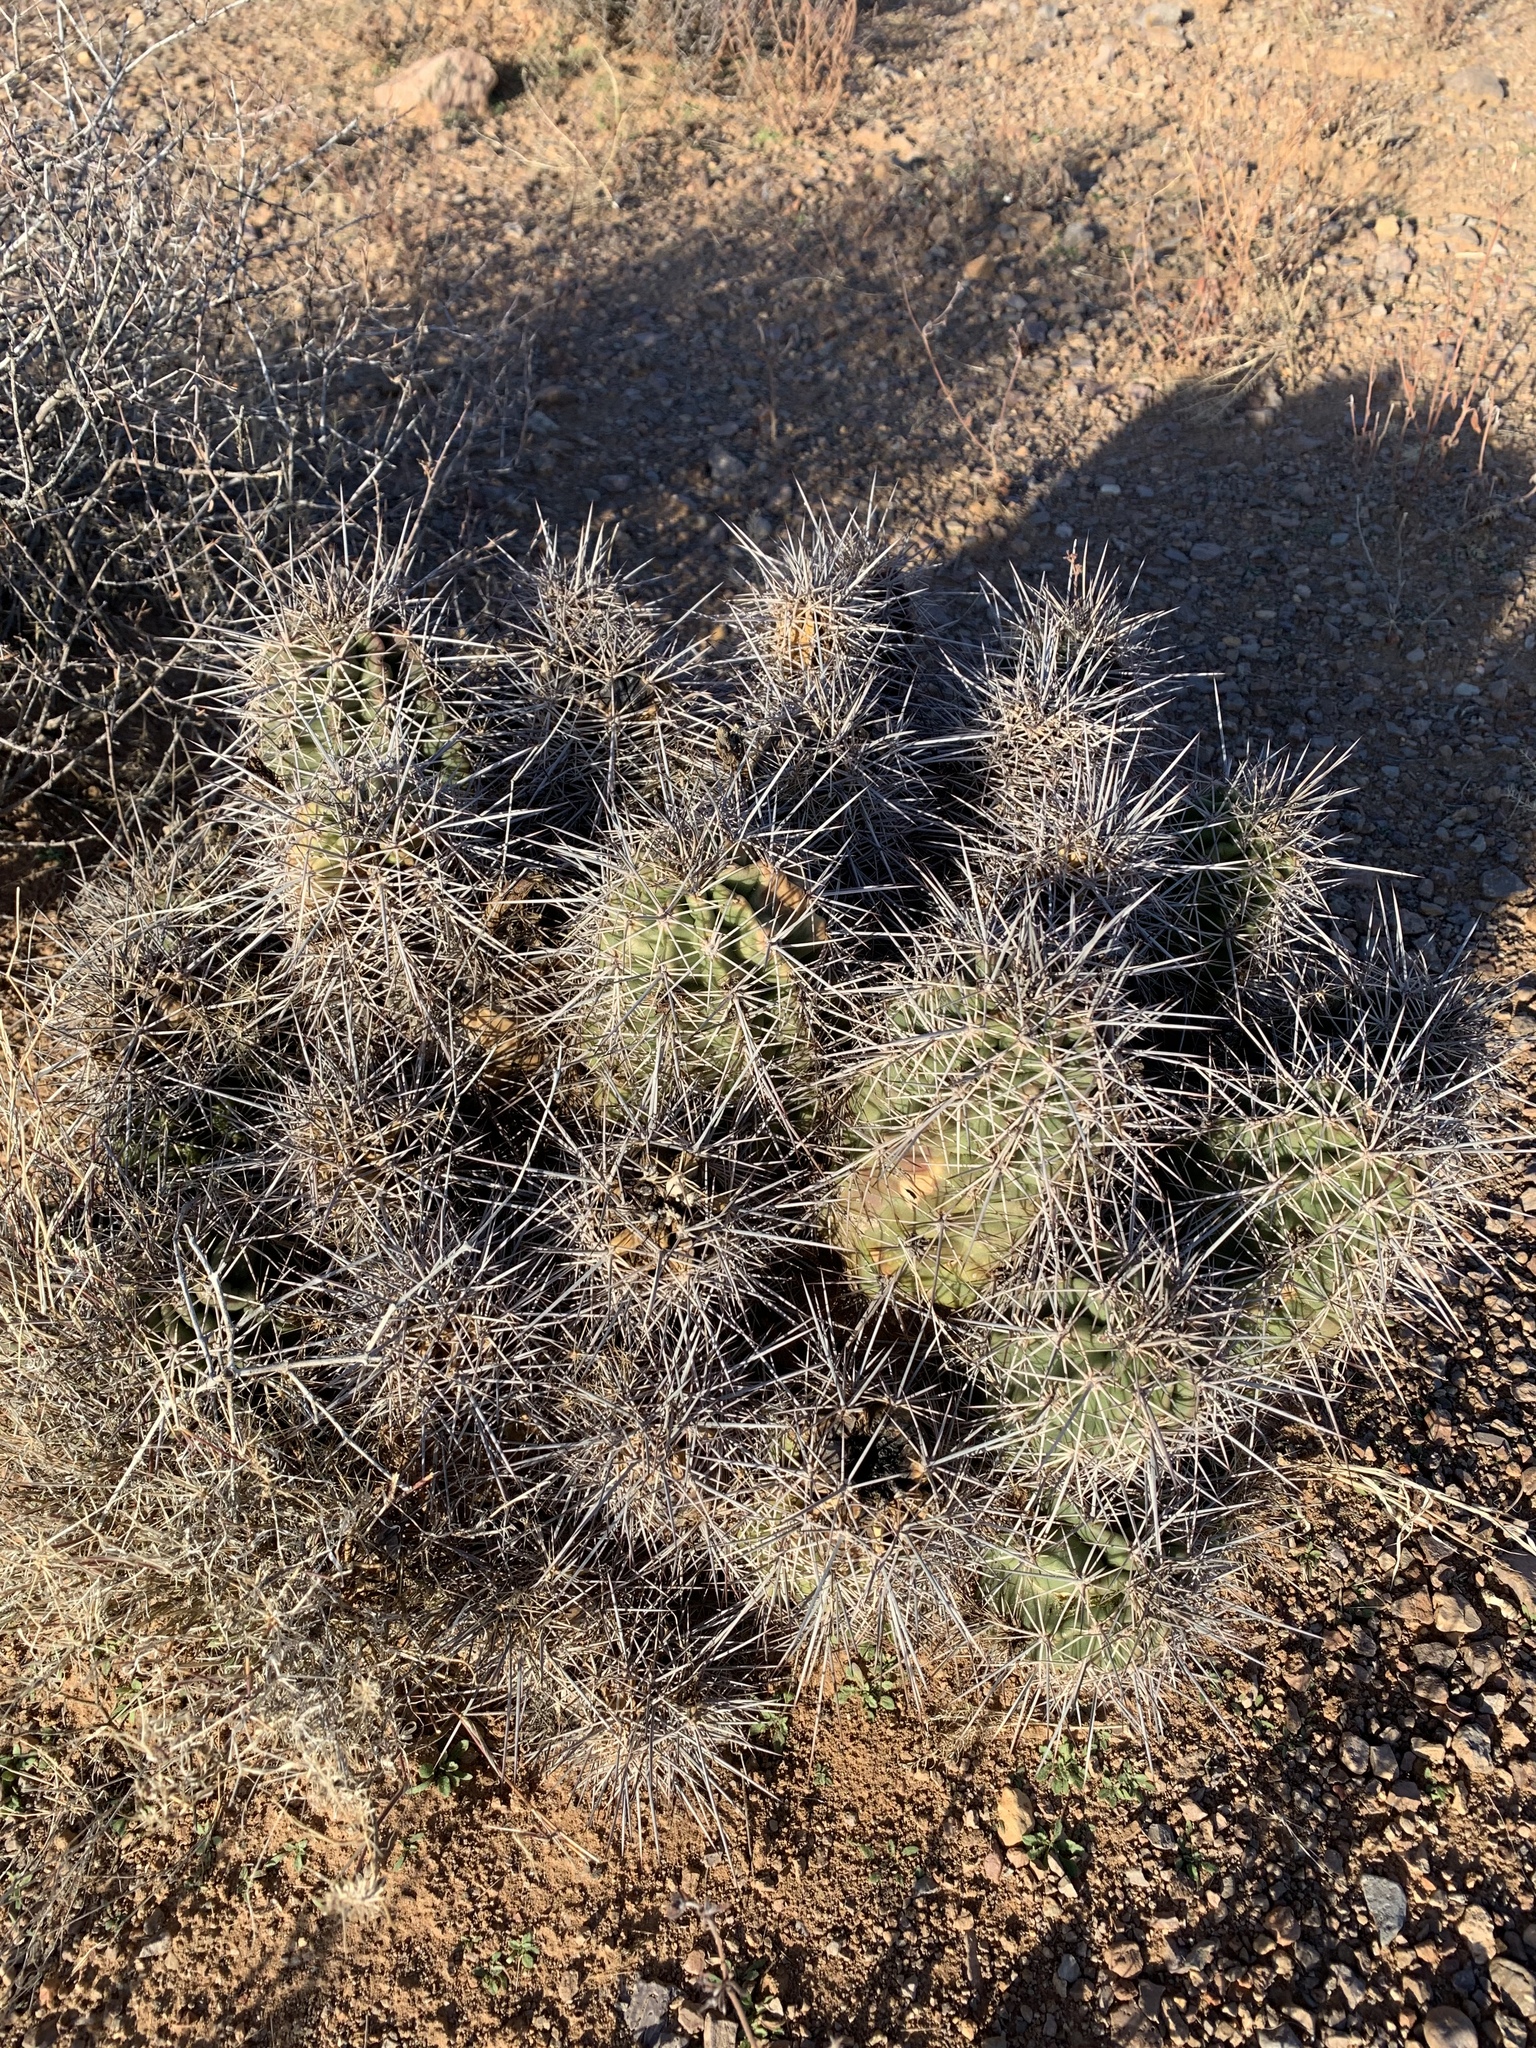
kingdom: Plantae
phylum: Tracheophyta
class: Magnoliopsida
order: Caryophyllales
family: Cactaceae
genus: Echinocereus
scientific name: Echinocereus coccineus
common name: Scarlet hedgehog cactus
